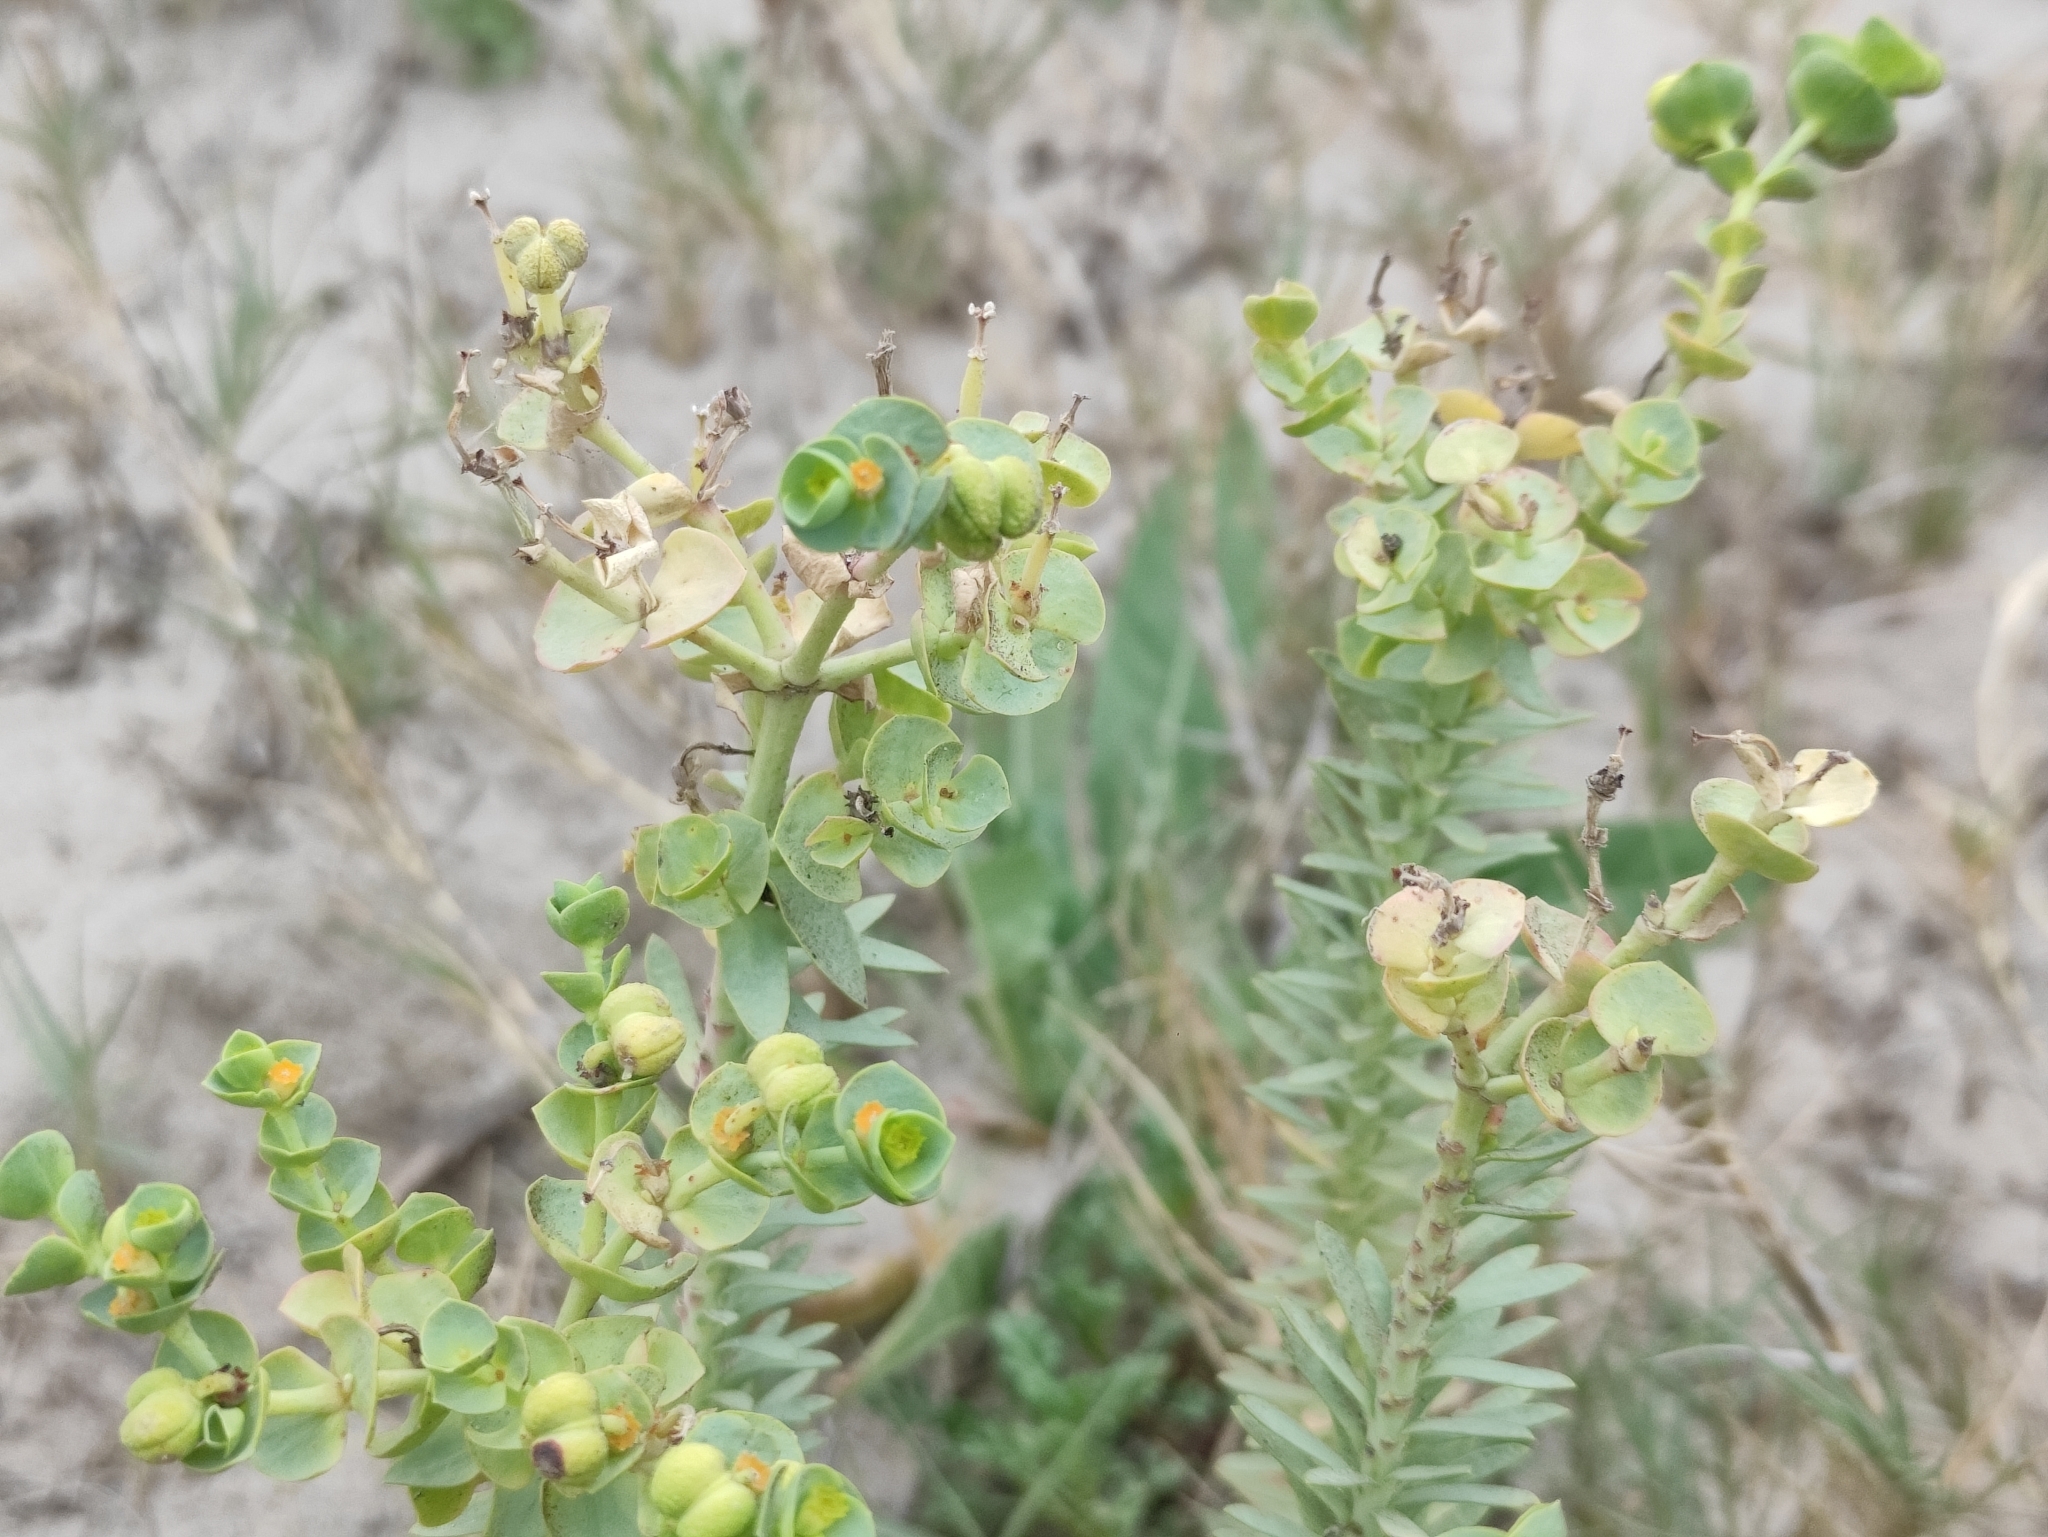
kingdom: Plantae
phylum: Tracheophyta
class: Magnoliopsida
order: Malpighiales
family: Euphorbiaceae
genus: Euphorbia
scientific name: Euphorbia paralias
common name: Sea spurge
